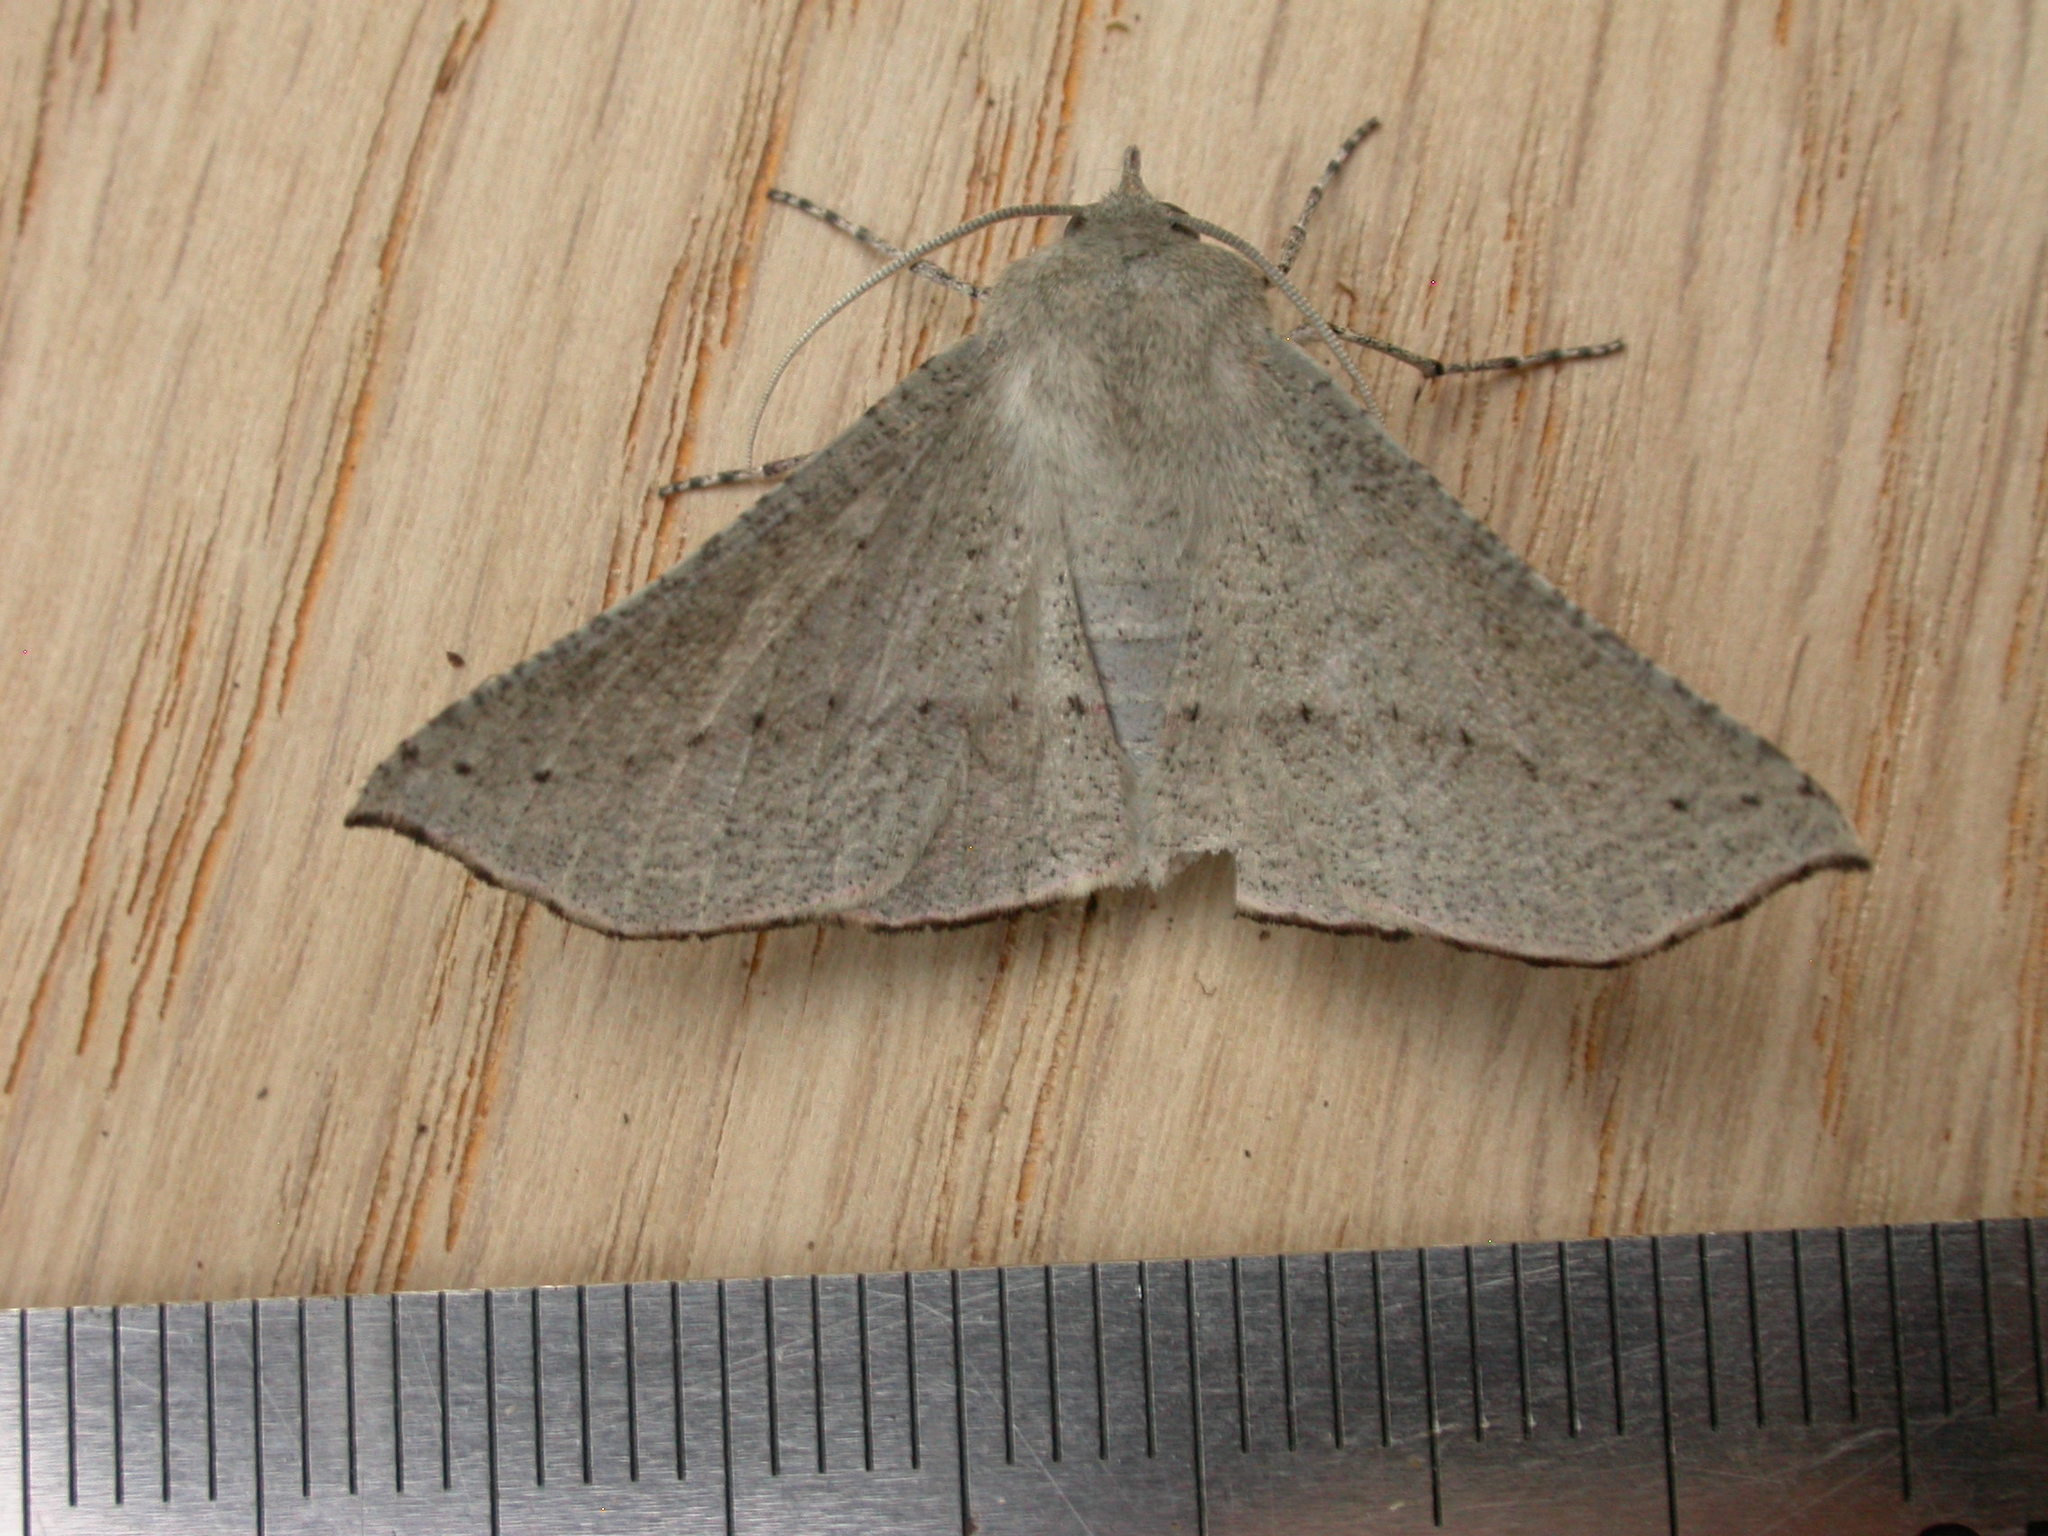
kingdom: Animalia
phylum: Arthropoda
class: Insecta
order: Lepidoptera
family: Geometridae
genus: Oenochroma
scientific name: Oenochroma subustaria
